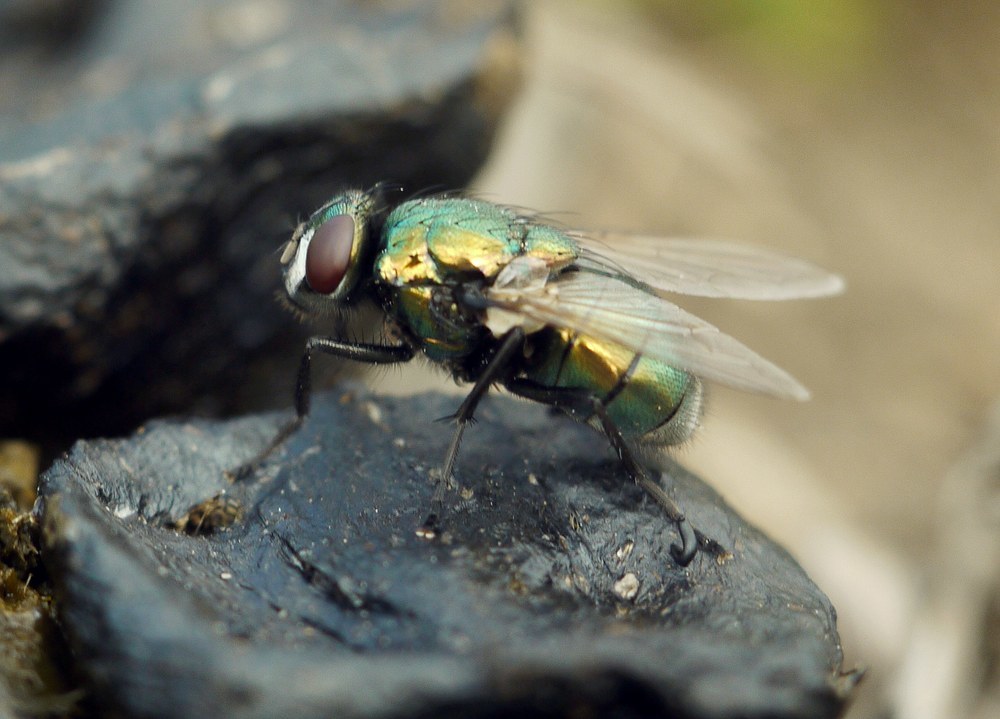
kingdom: Animalia
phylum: Arthropoda
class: Insecta
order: Diptera
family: Muscidae
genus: Neomyia
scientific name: Neomyia cornicina
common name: House fly
